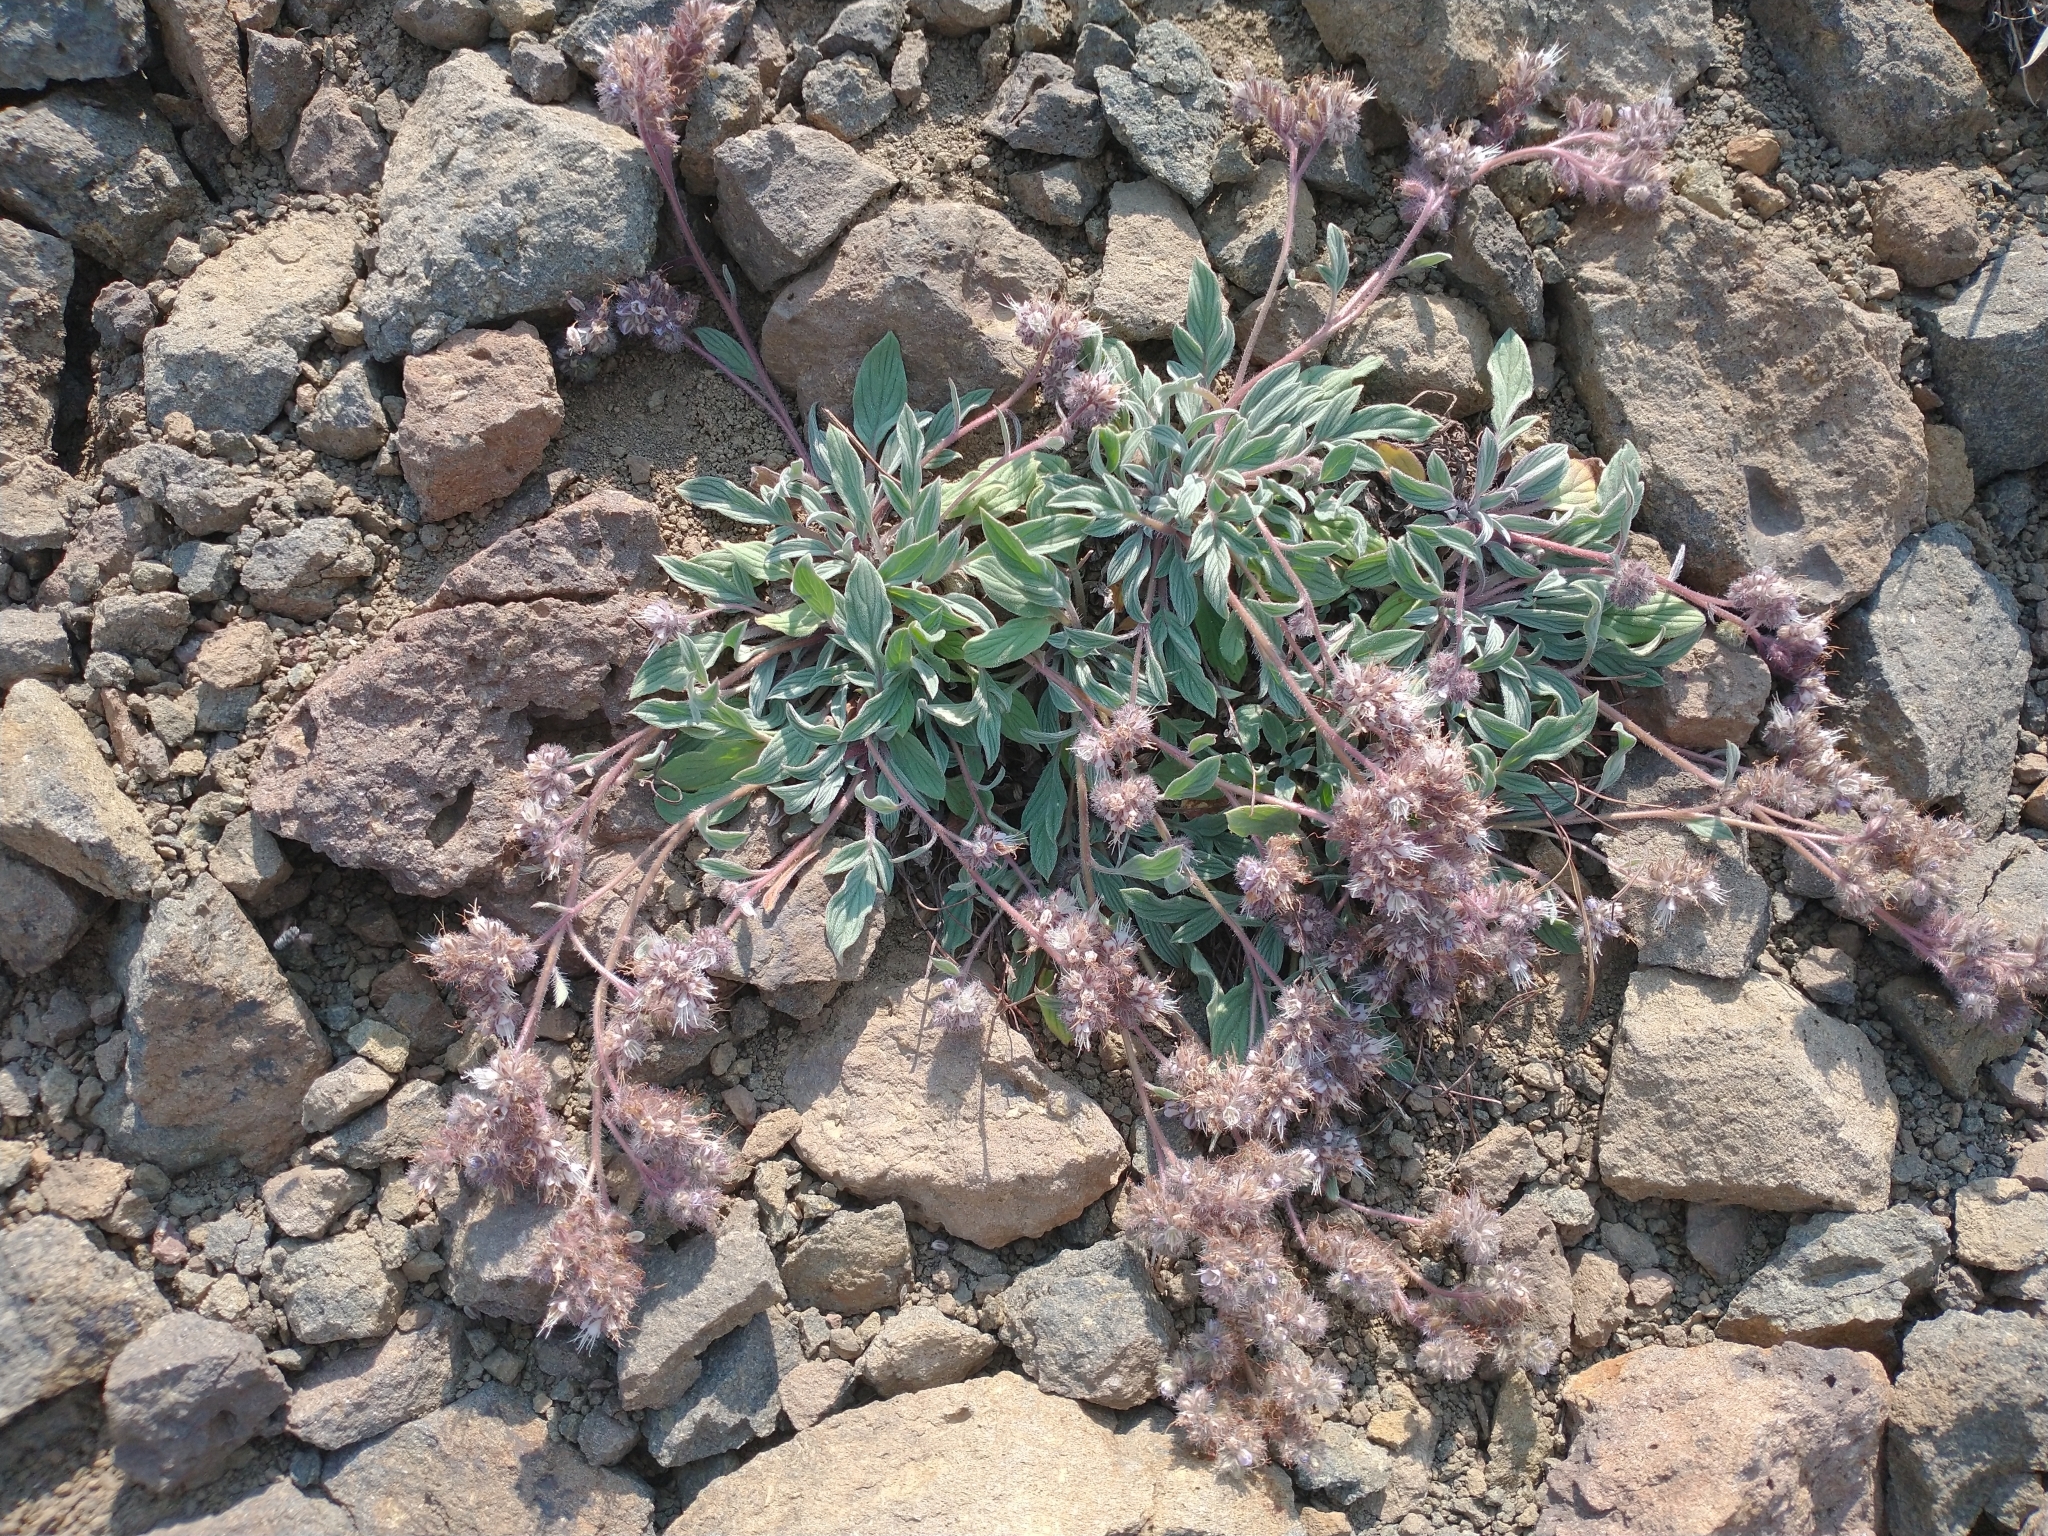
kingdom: Plantae
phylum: Tracheophyta
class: Magnoliopsida
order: Boraginales
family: Hydrophyllaceae
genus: Phacelia
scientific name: Phacelia hastata
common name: Silver-leaved phacelia
